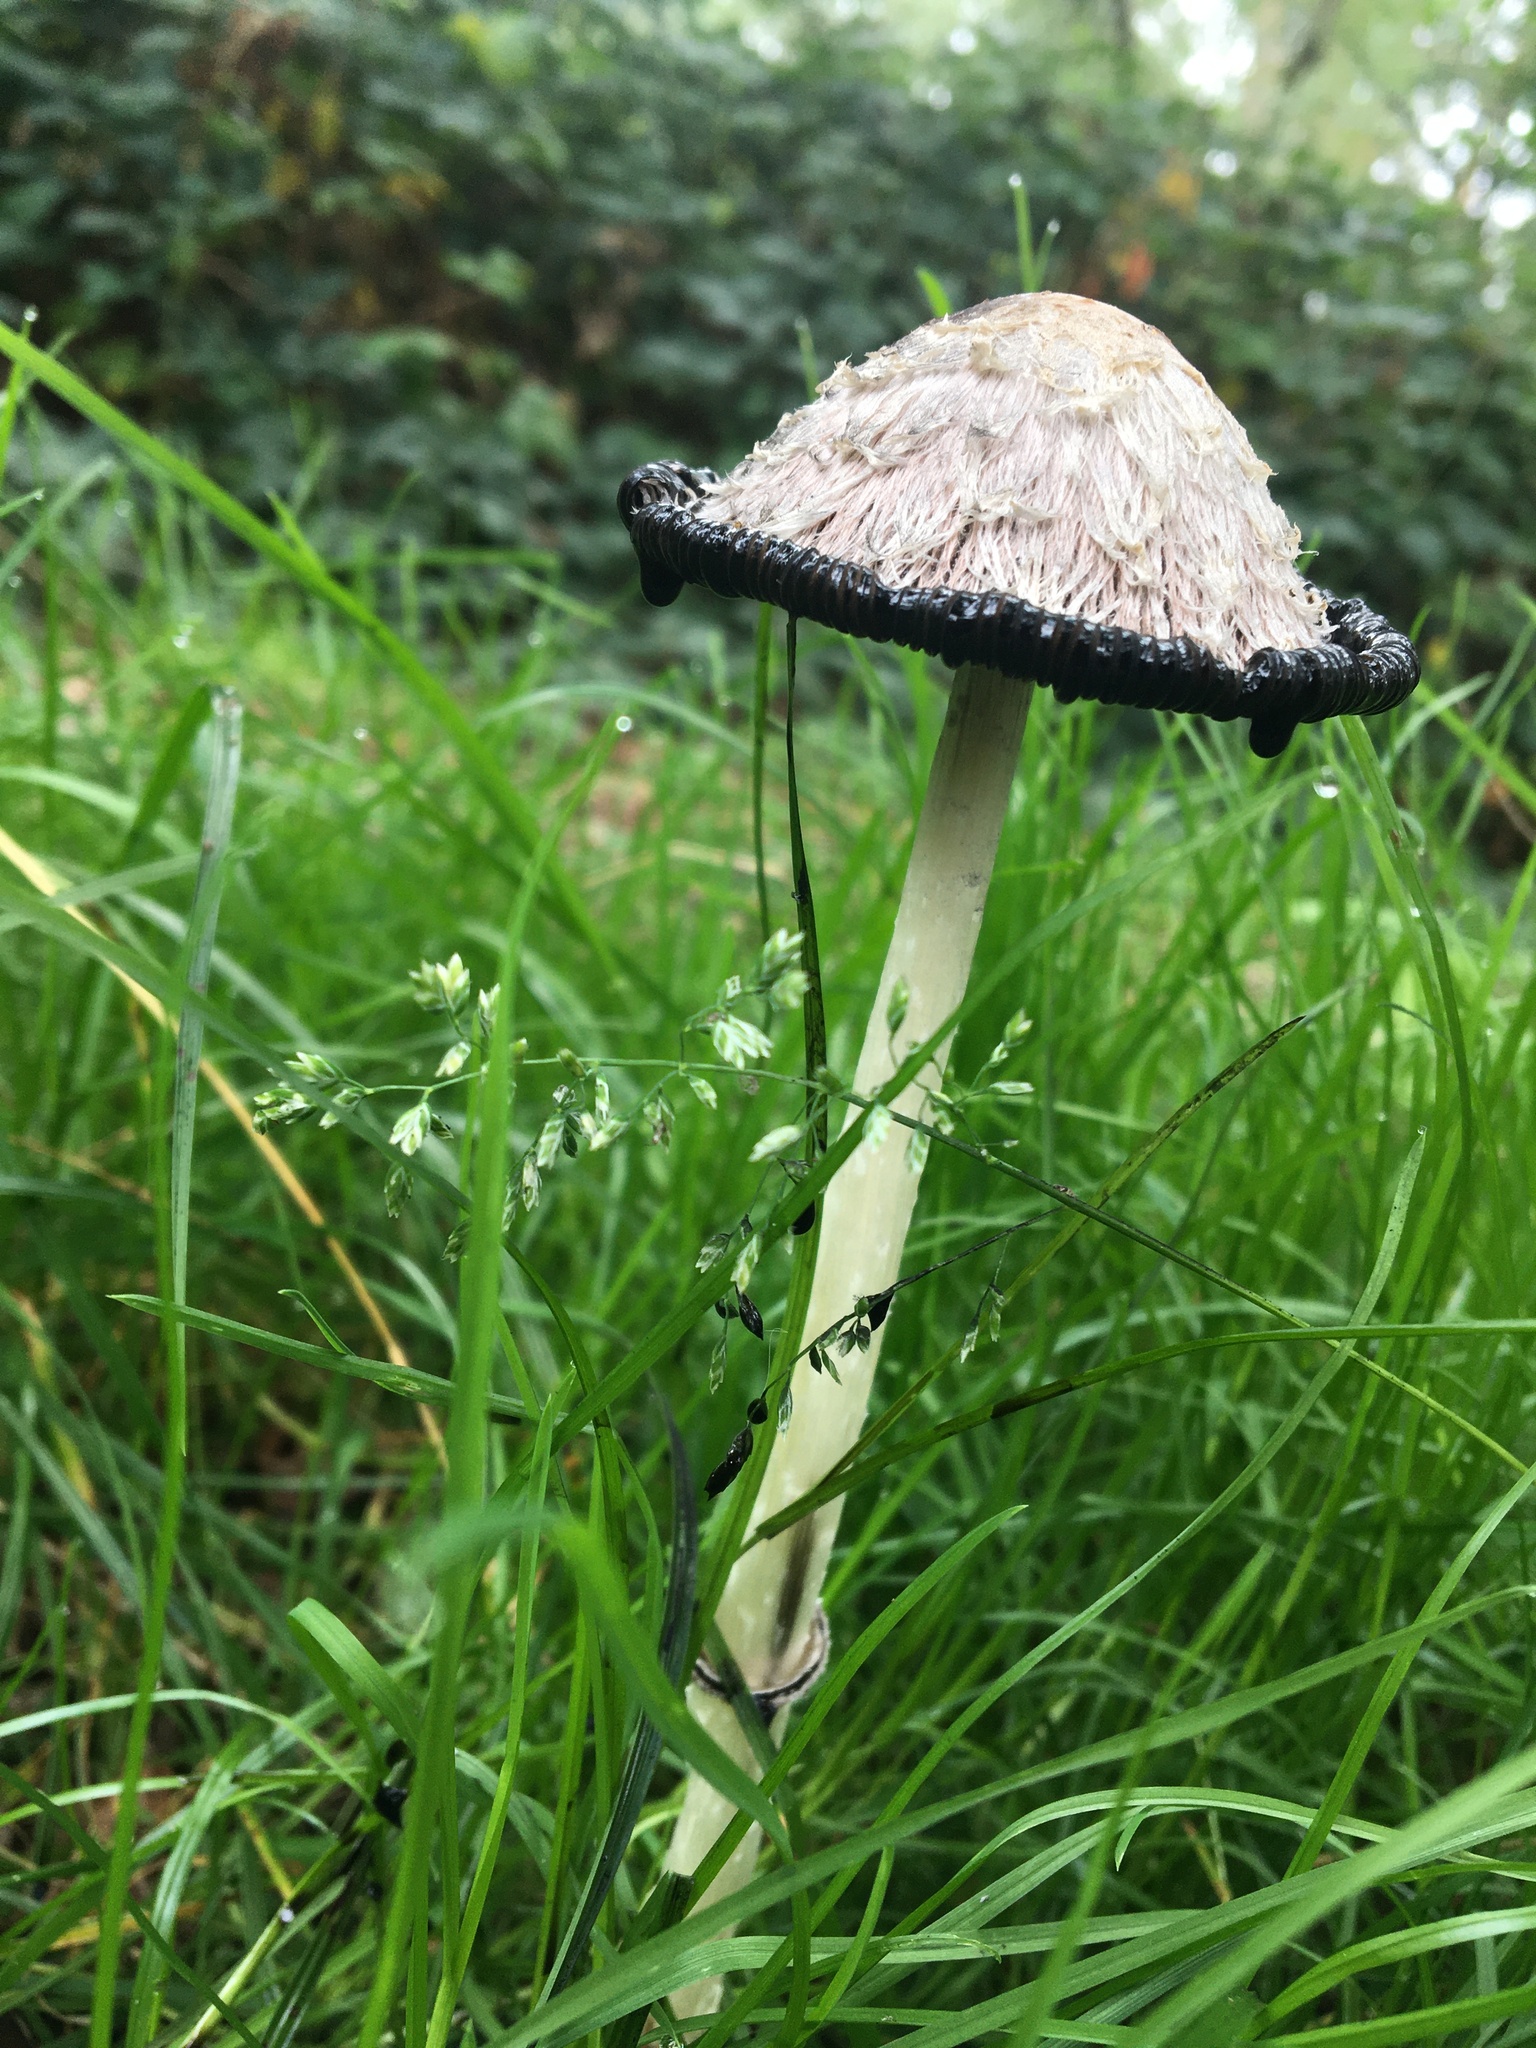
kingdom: Fungi
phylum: Basidiomycota
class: Agaricomycetes
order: Agaricales
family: Agaricaceae
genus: Coprinus
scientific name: Coprinus comatus
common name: Lawyer's wig
